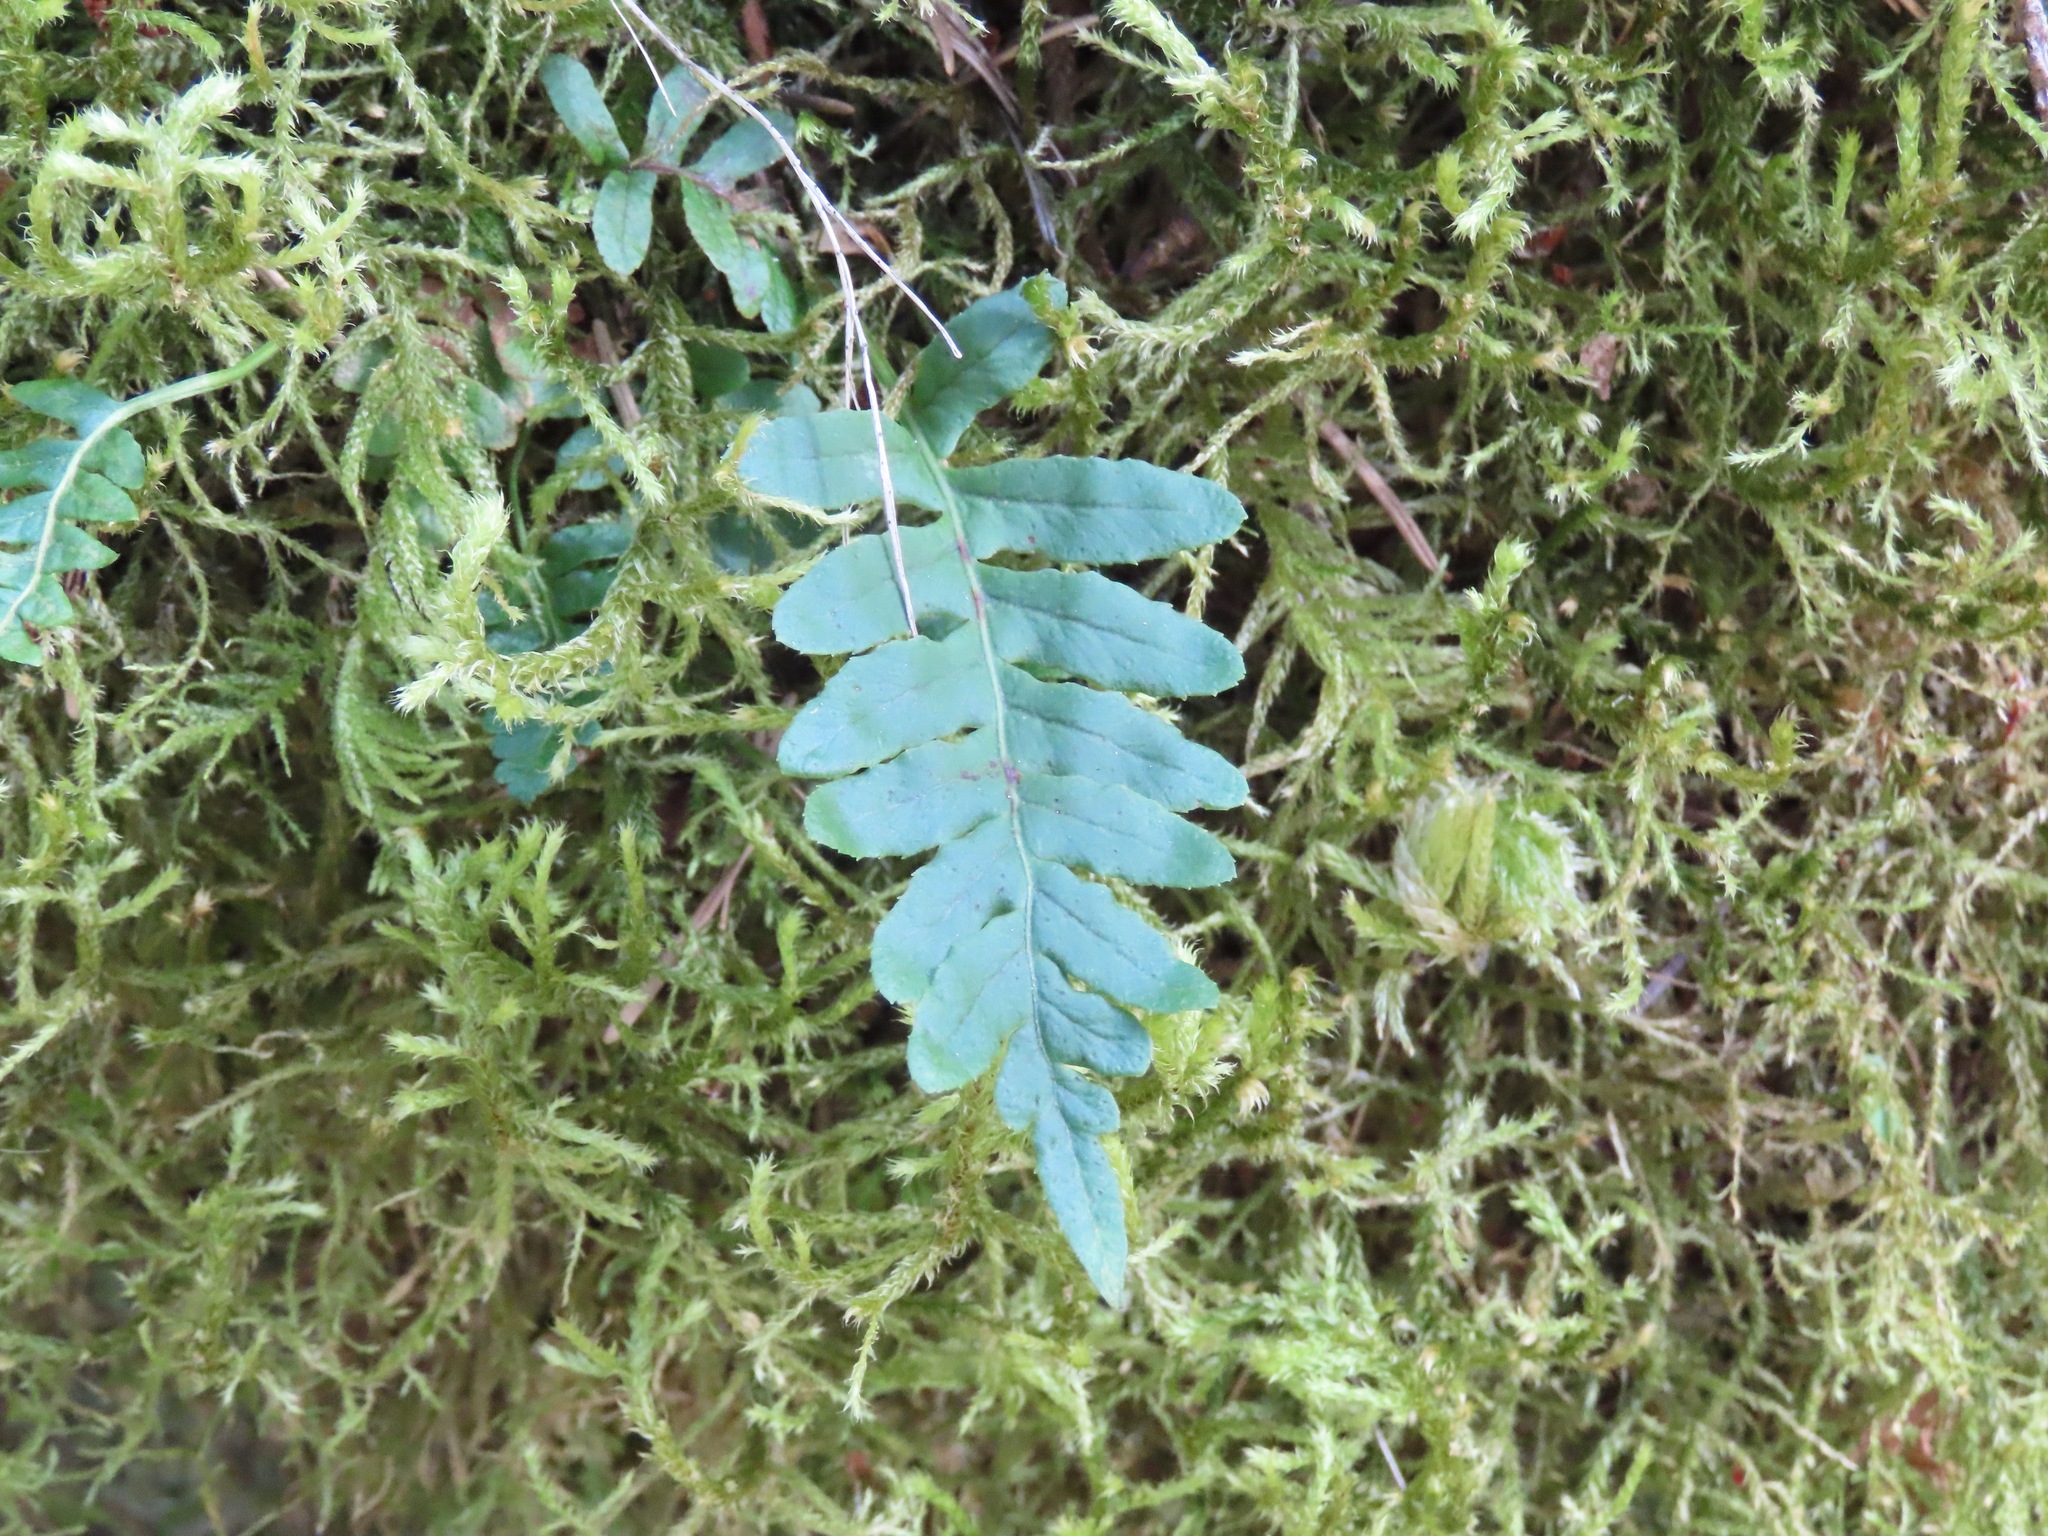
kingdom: Plantae
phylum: Tracheophyta
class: Polypodiopsida
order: Polypodiales
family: Polypodiaceae
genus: Polypodium
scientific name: Polypodium glycyrrhiza
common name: Licorice fern
